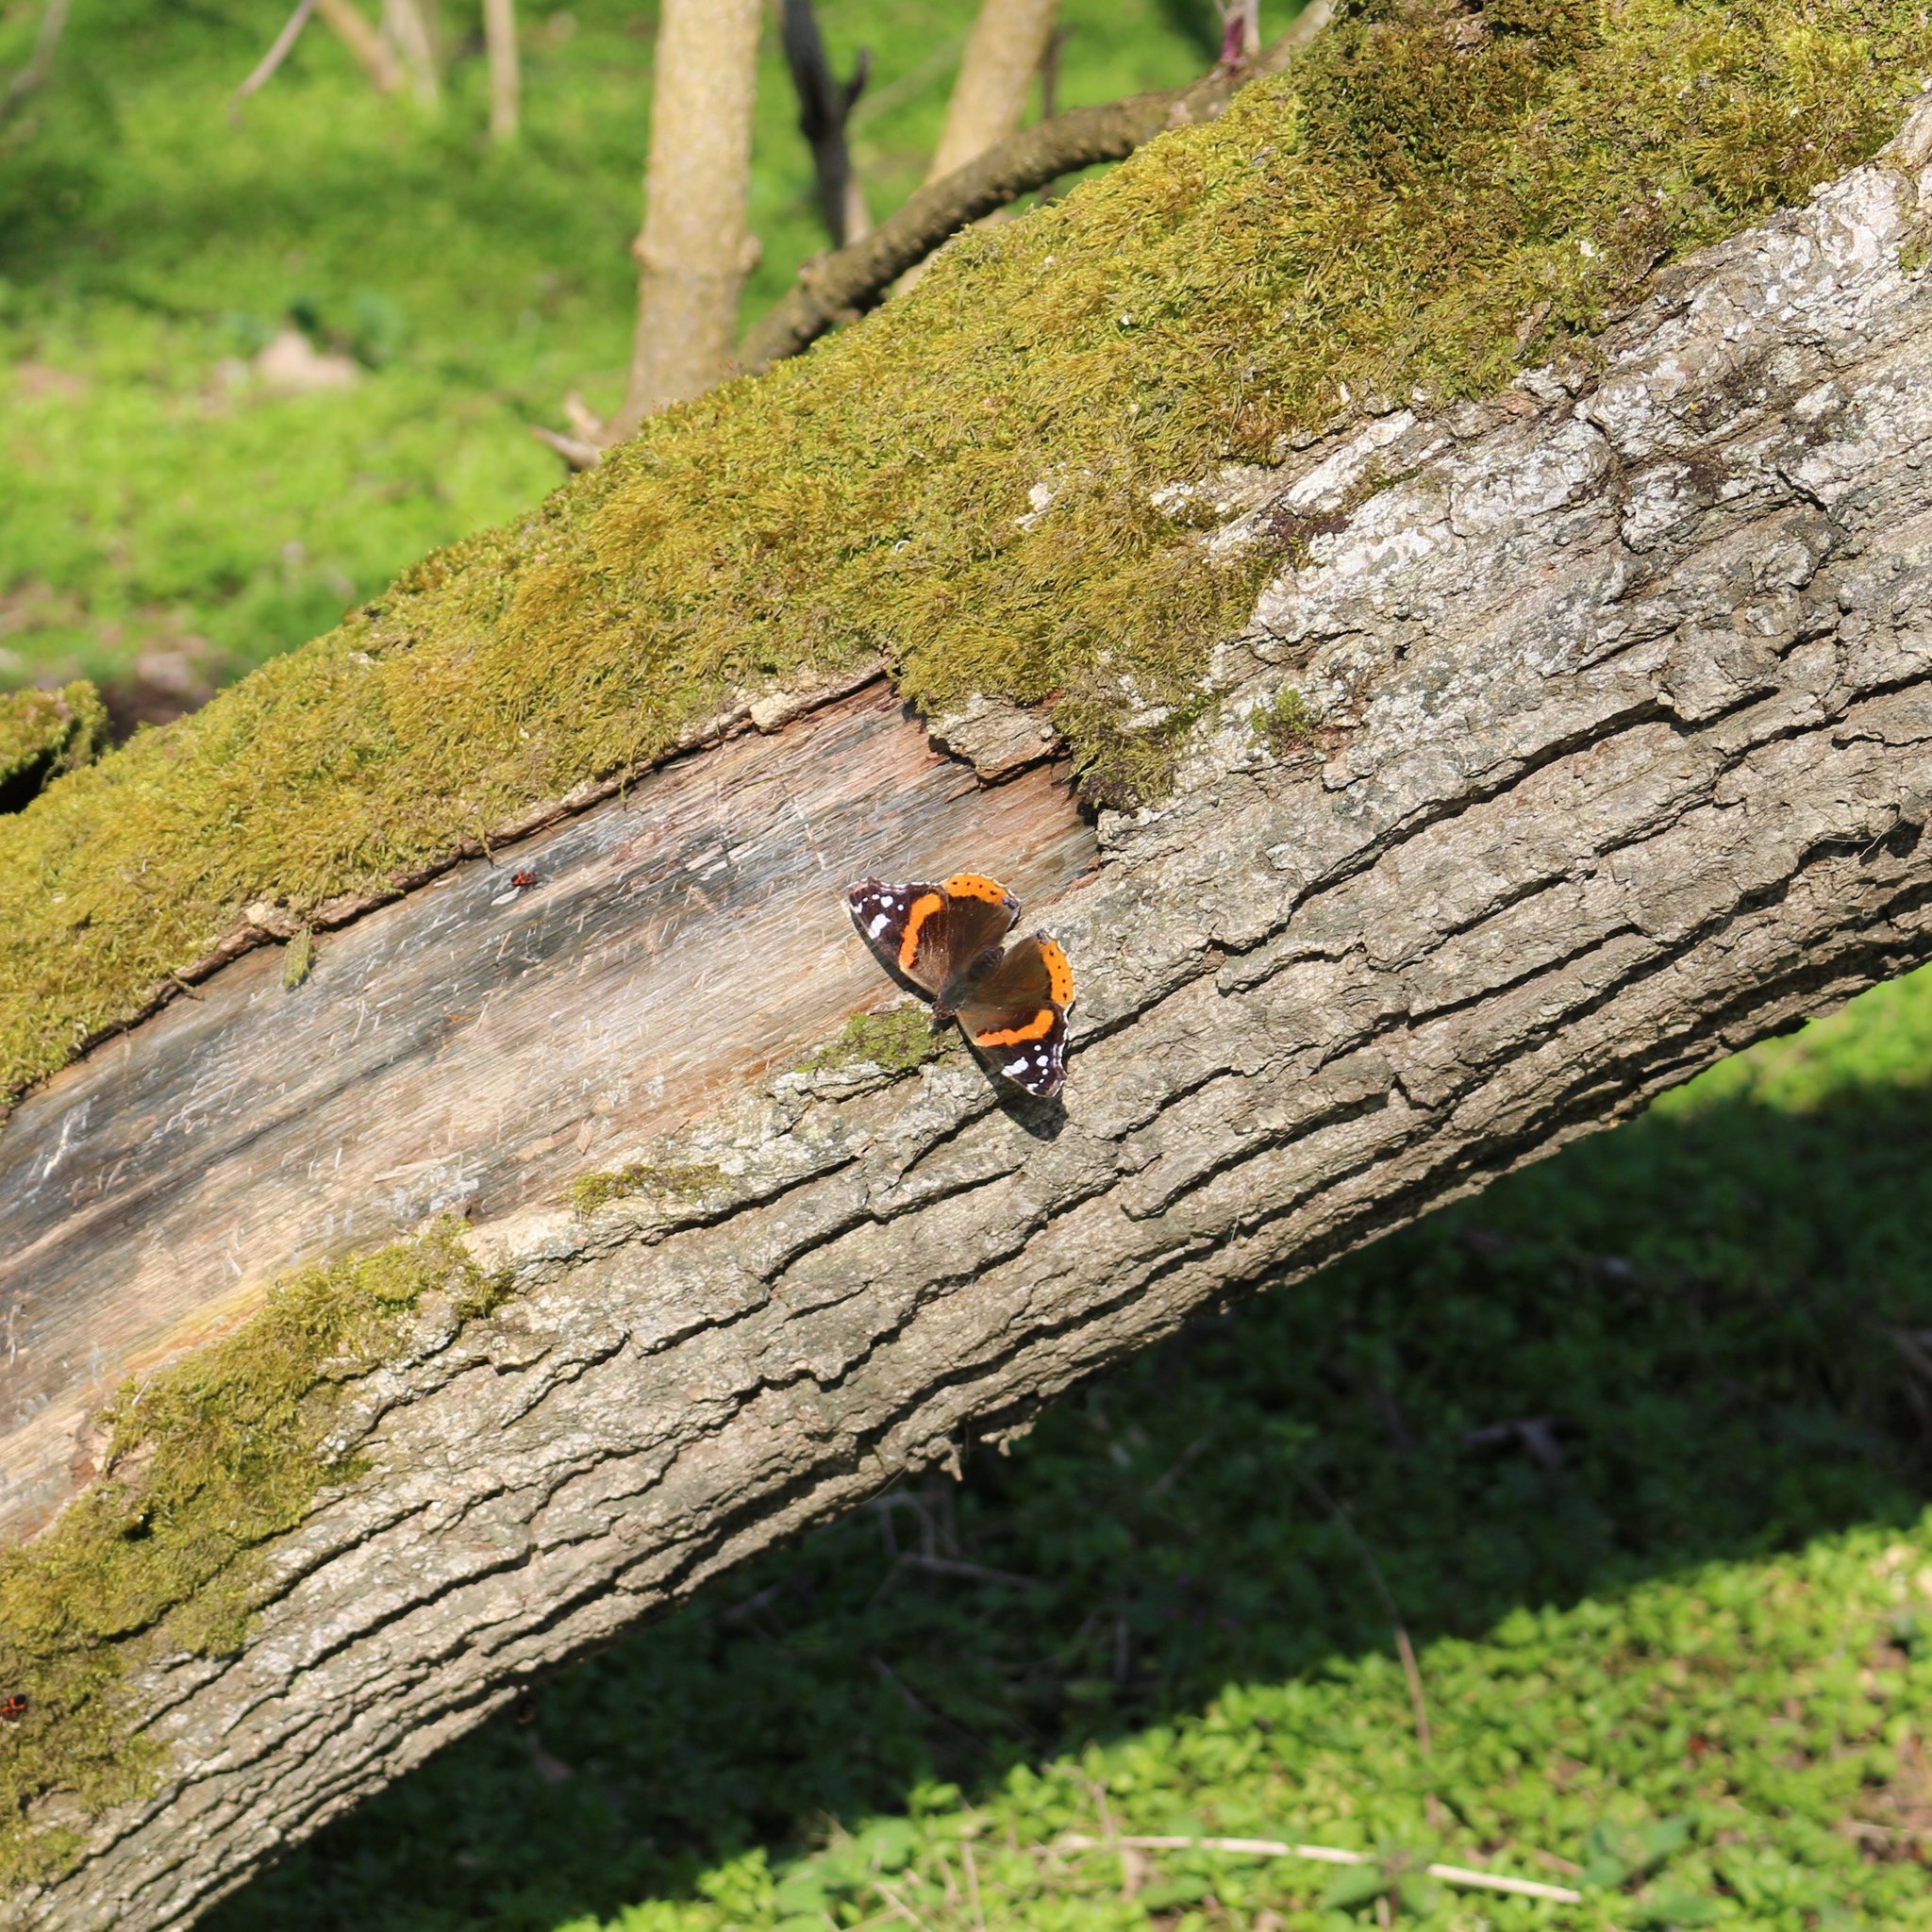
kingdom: Animalia
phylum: Arthropoda
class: Insecta
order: Lepidoptera
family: Nymphalidae
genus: Vanessa
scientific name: Vanessa atalanta
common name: Red admiral
